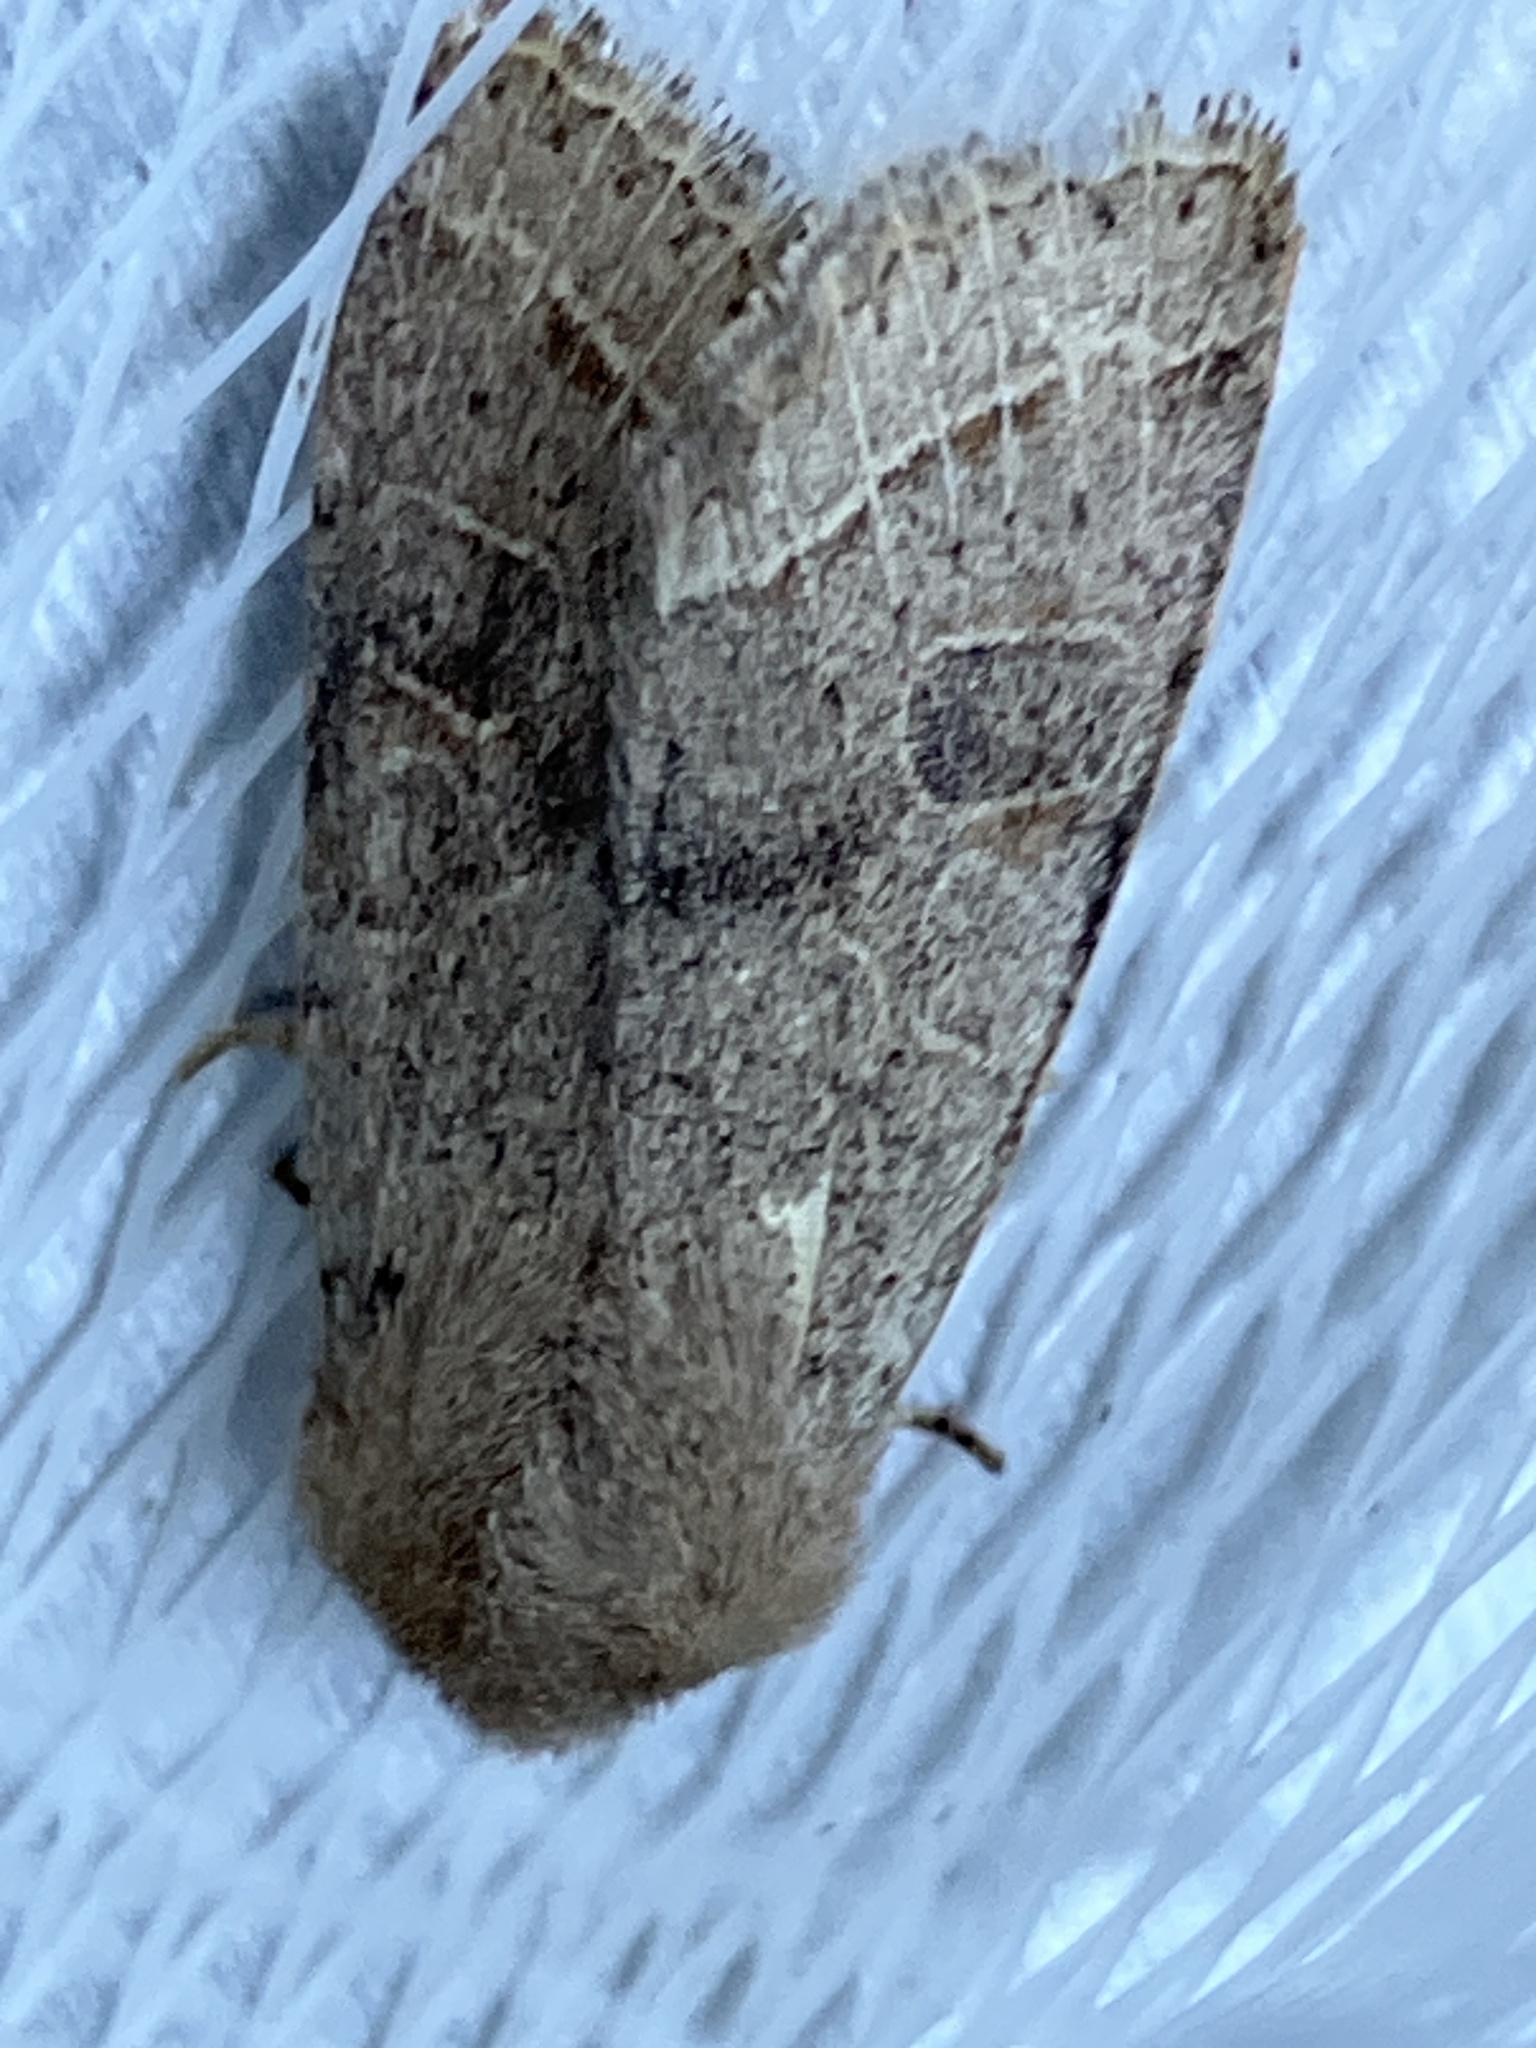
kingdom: Animalia
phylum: Arthropoda
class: Insecta
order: Lepidoptera
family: Noctuidae
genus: Orthosia
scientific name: Orthosia cerasi
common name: Common quaker
